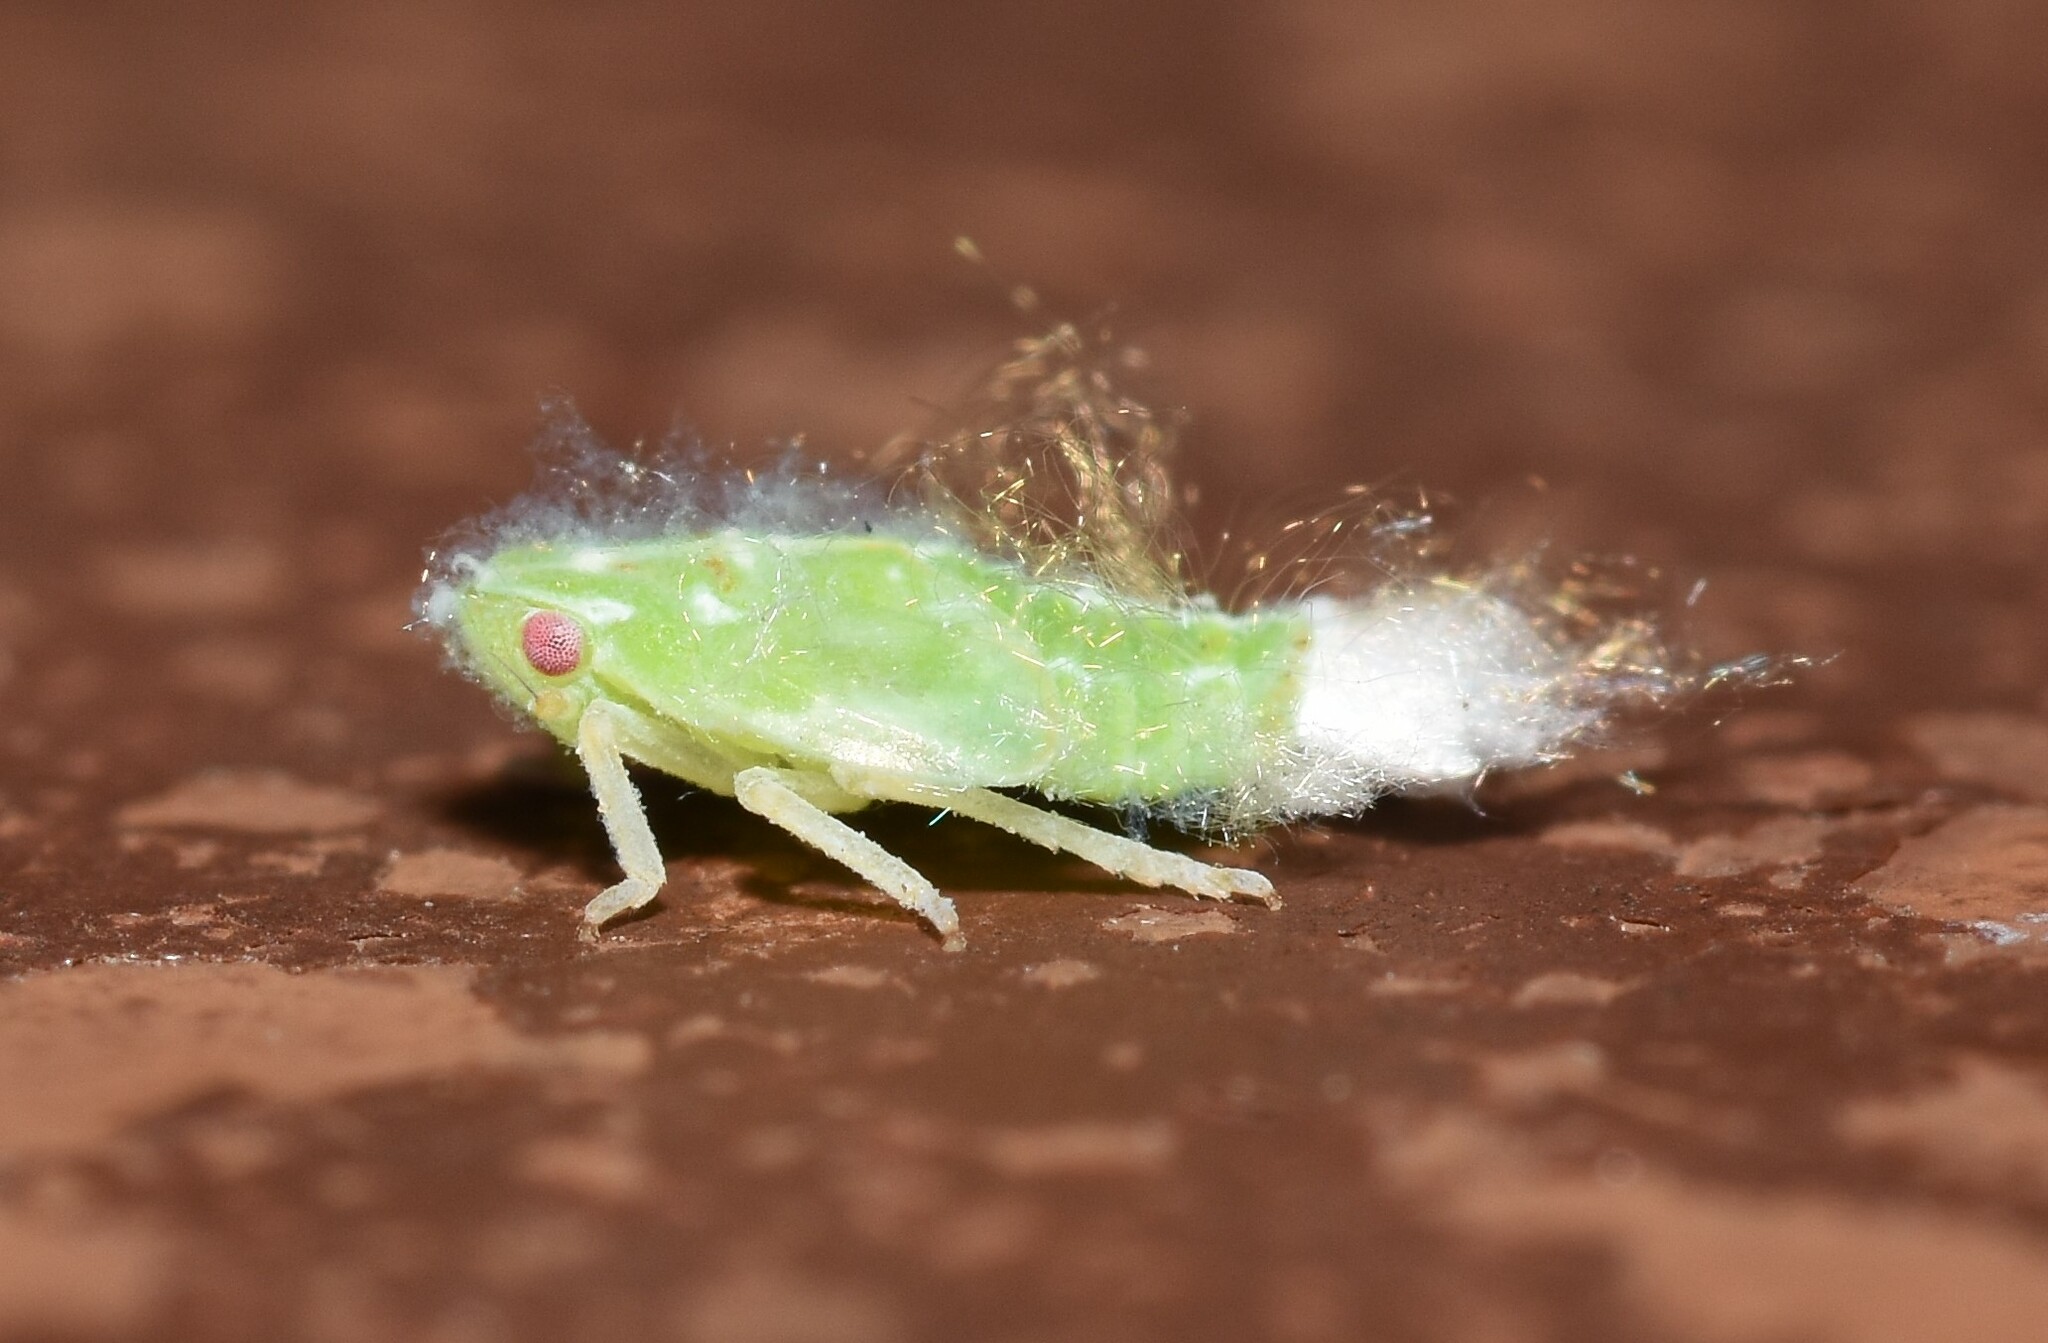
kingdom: Animalia
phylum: Arthropoda
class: Insecta
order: Hemiptera
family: Flatidae
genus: Ormenoides
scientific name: Ormenoides venusta
